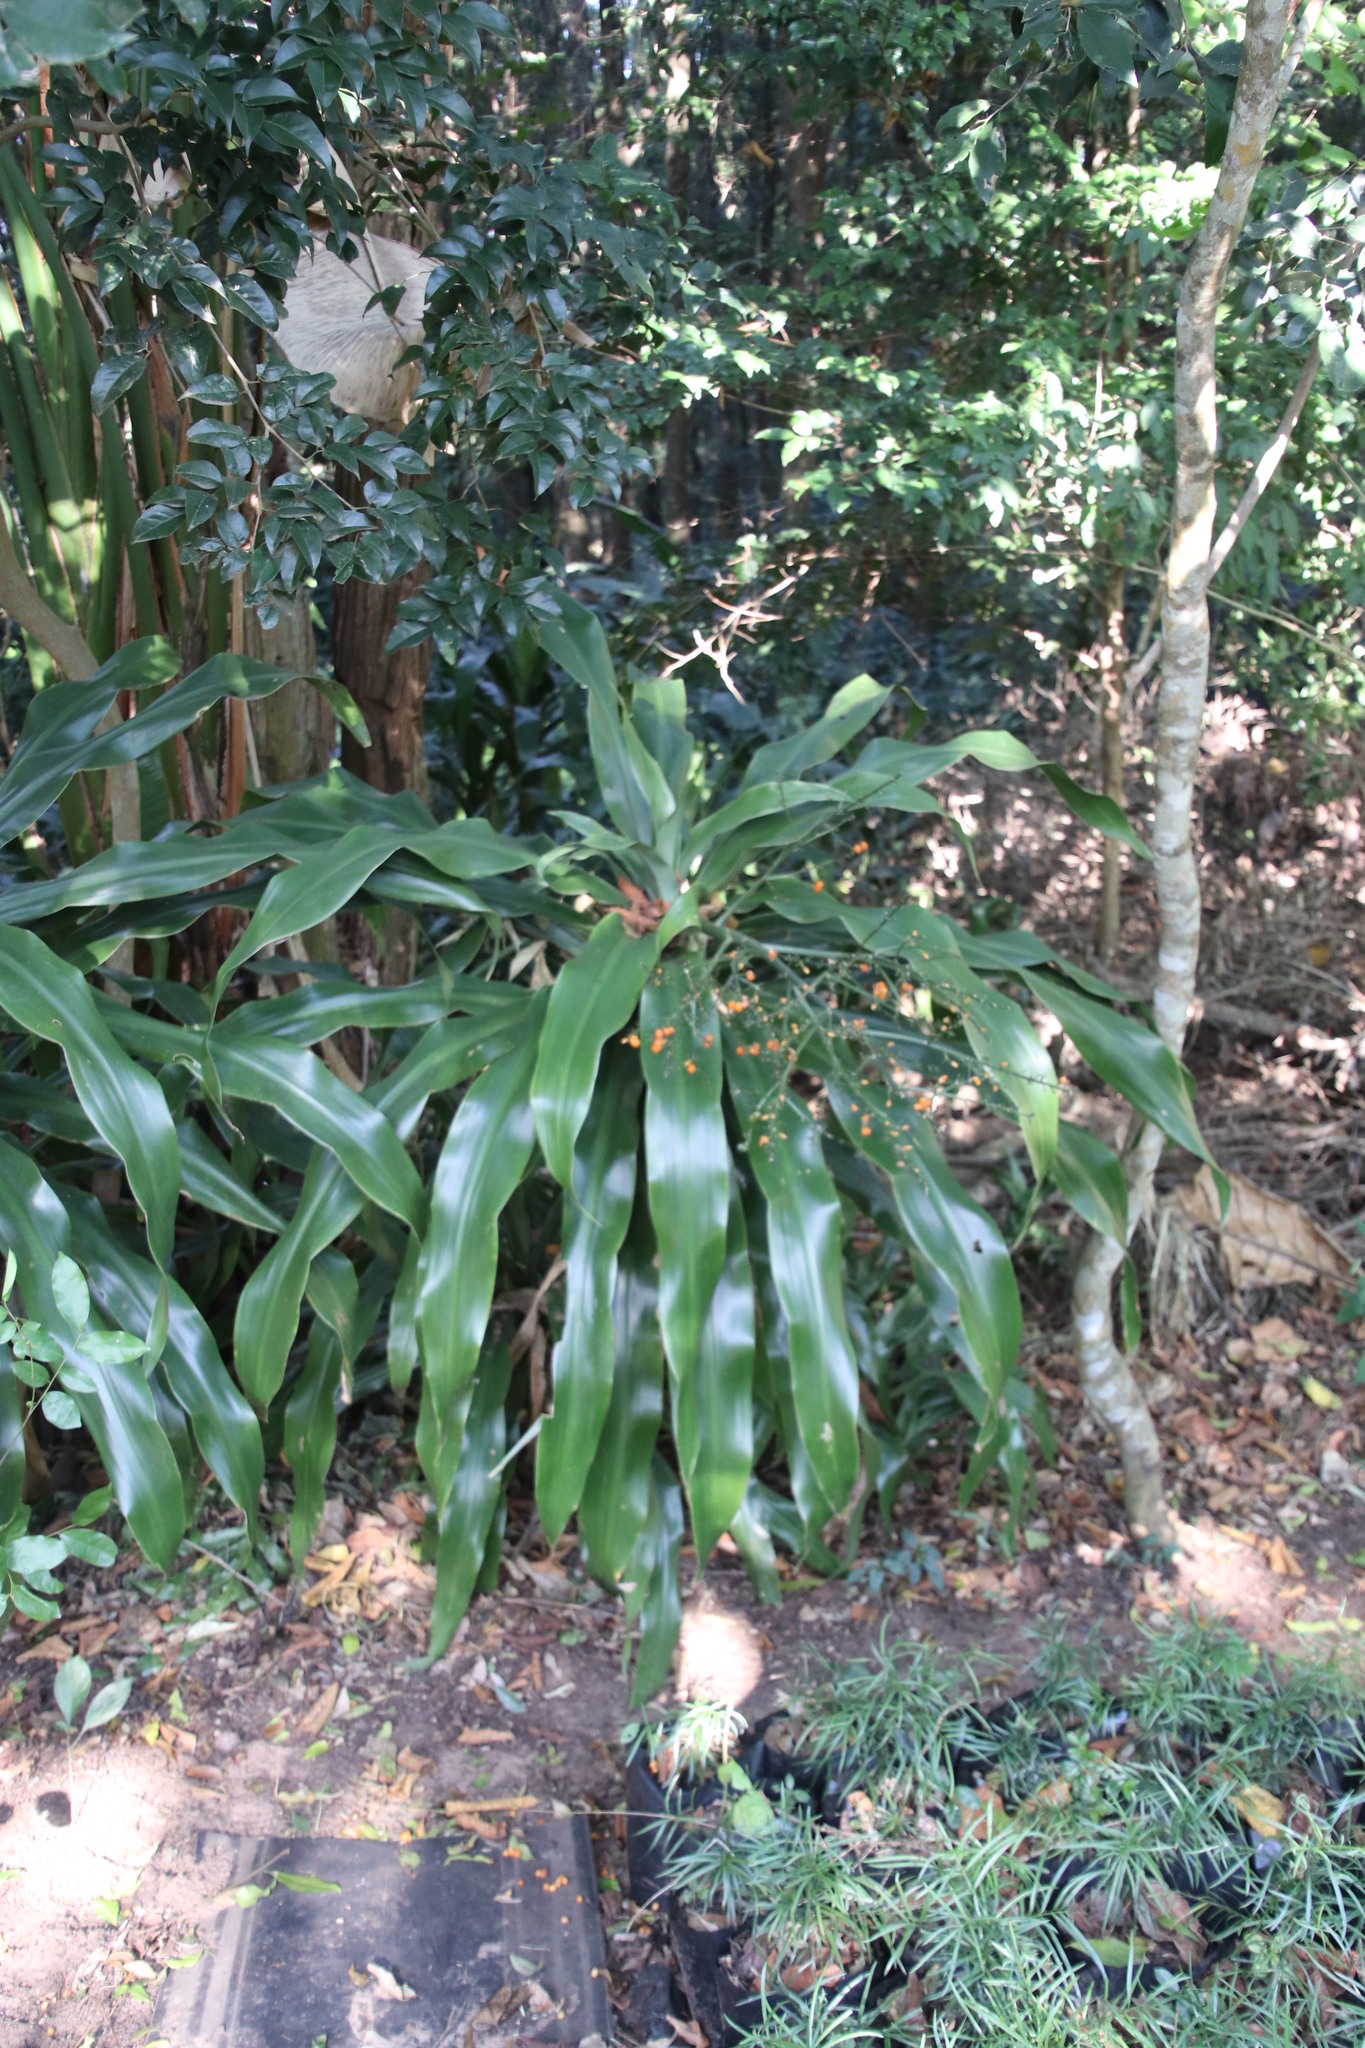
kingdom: Plantae
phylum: Tracheophyta
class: Liliopsida
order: Asparagales
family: Asparagaceae
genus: Dracaena
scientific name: Dracaena aletriformis
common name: Large-leaved dragon tree
